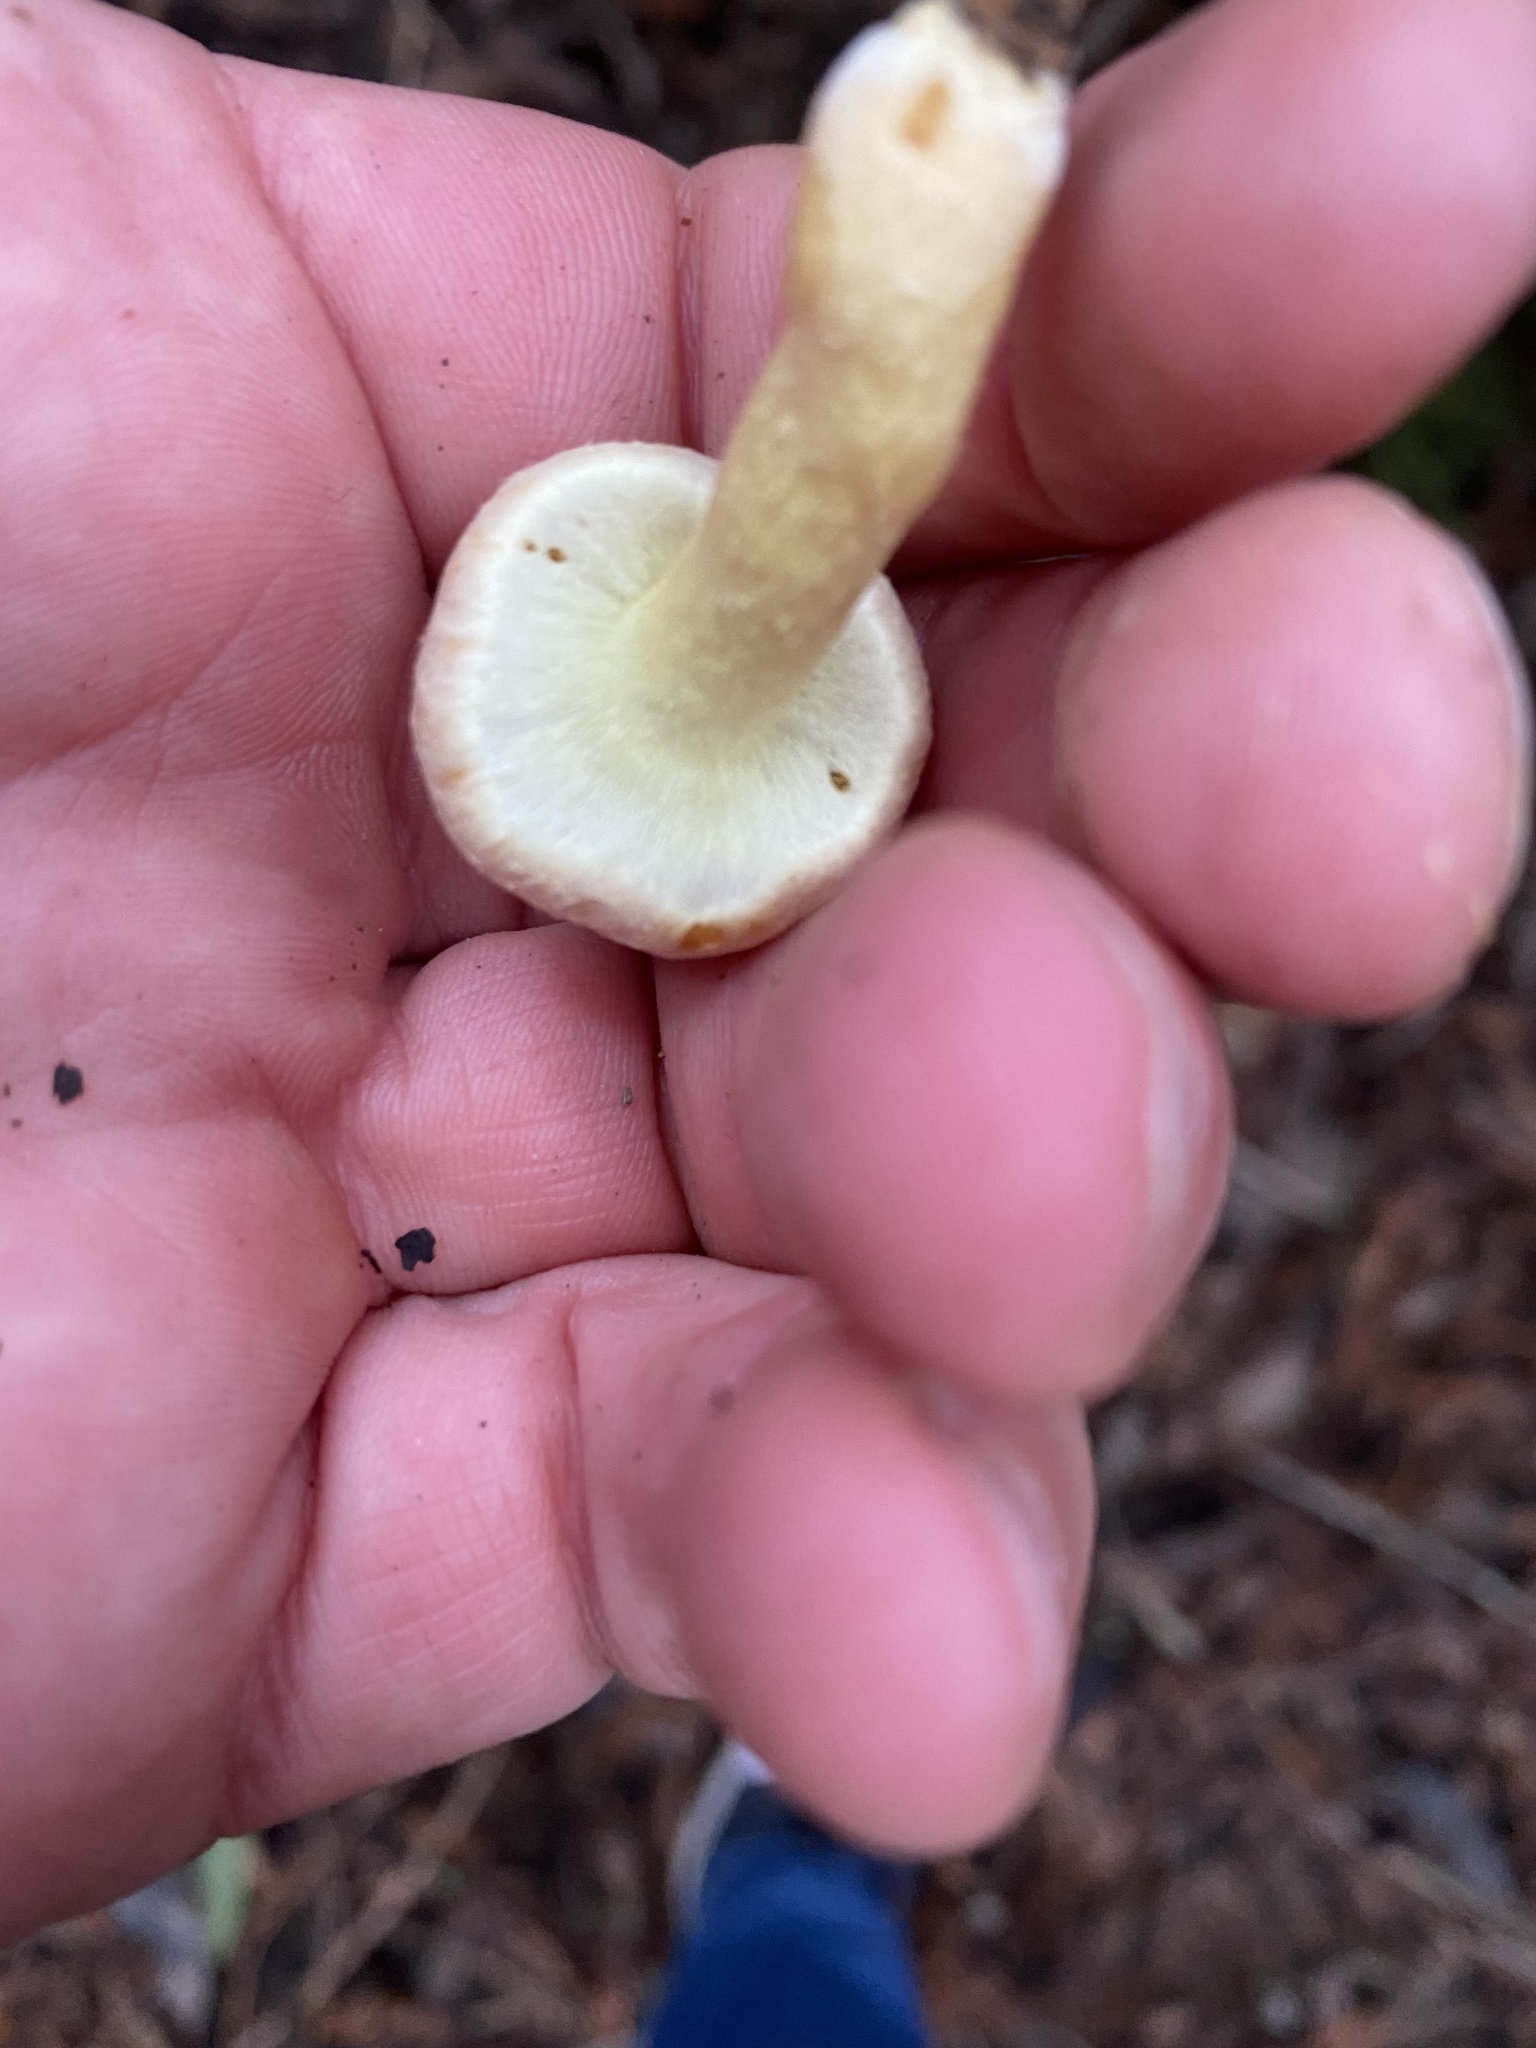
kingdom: Fungi
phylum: Basidiomycota
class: Agaricomycetes
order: Agaricales
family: Strophariaceae
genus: Hypholoma
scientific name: Hypholoma fasciculare
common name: Sulphur tuft
